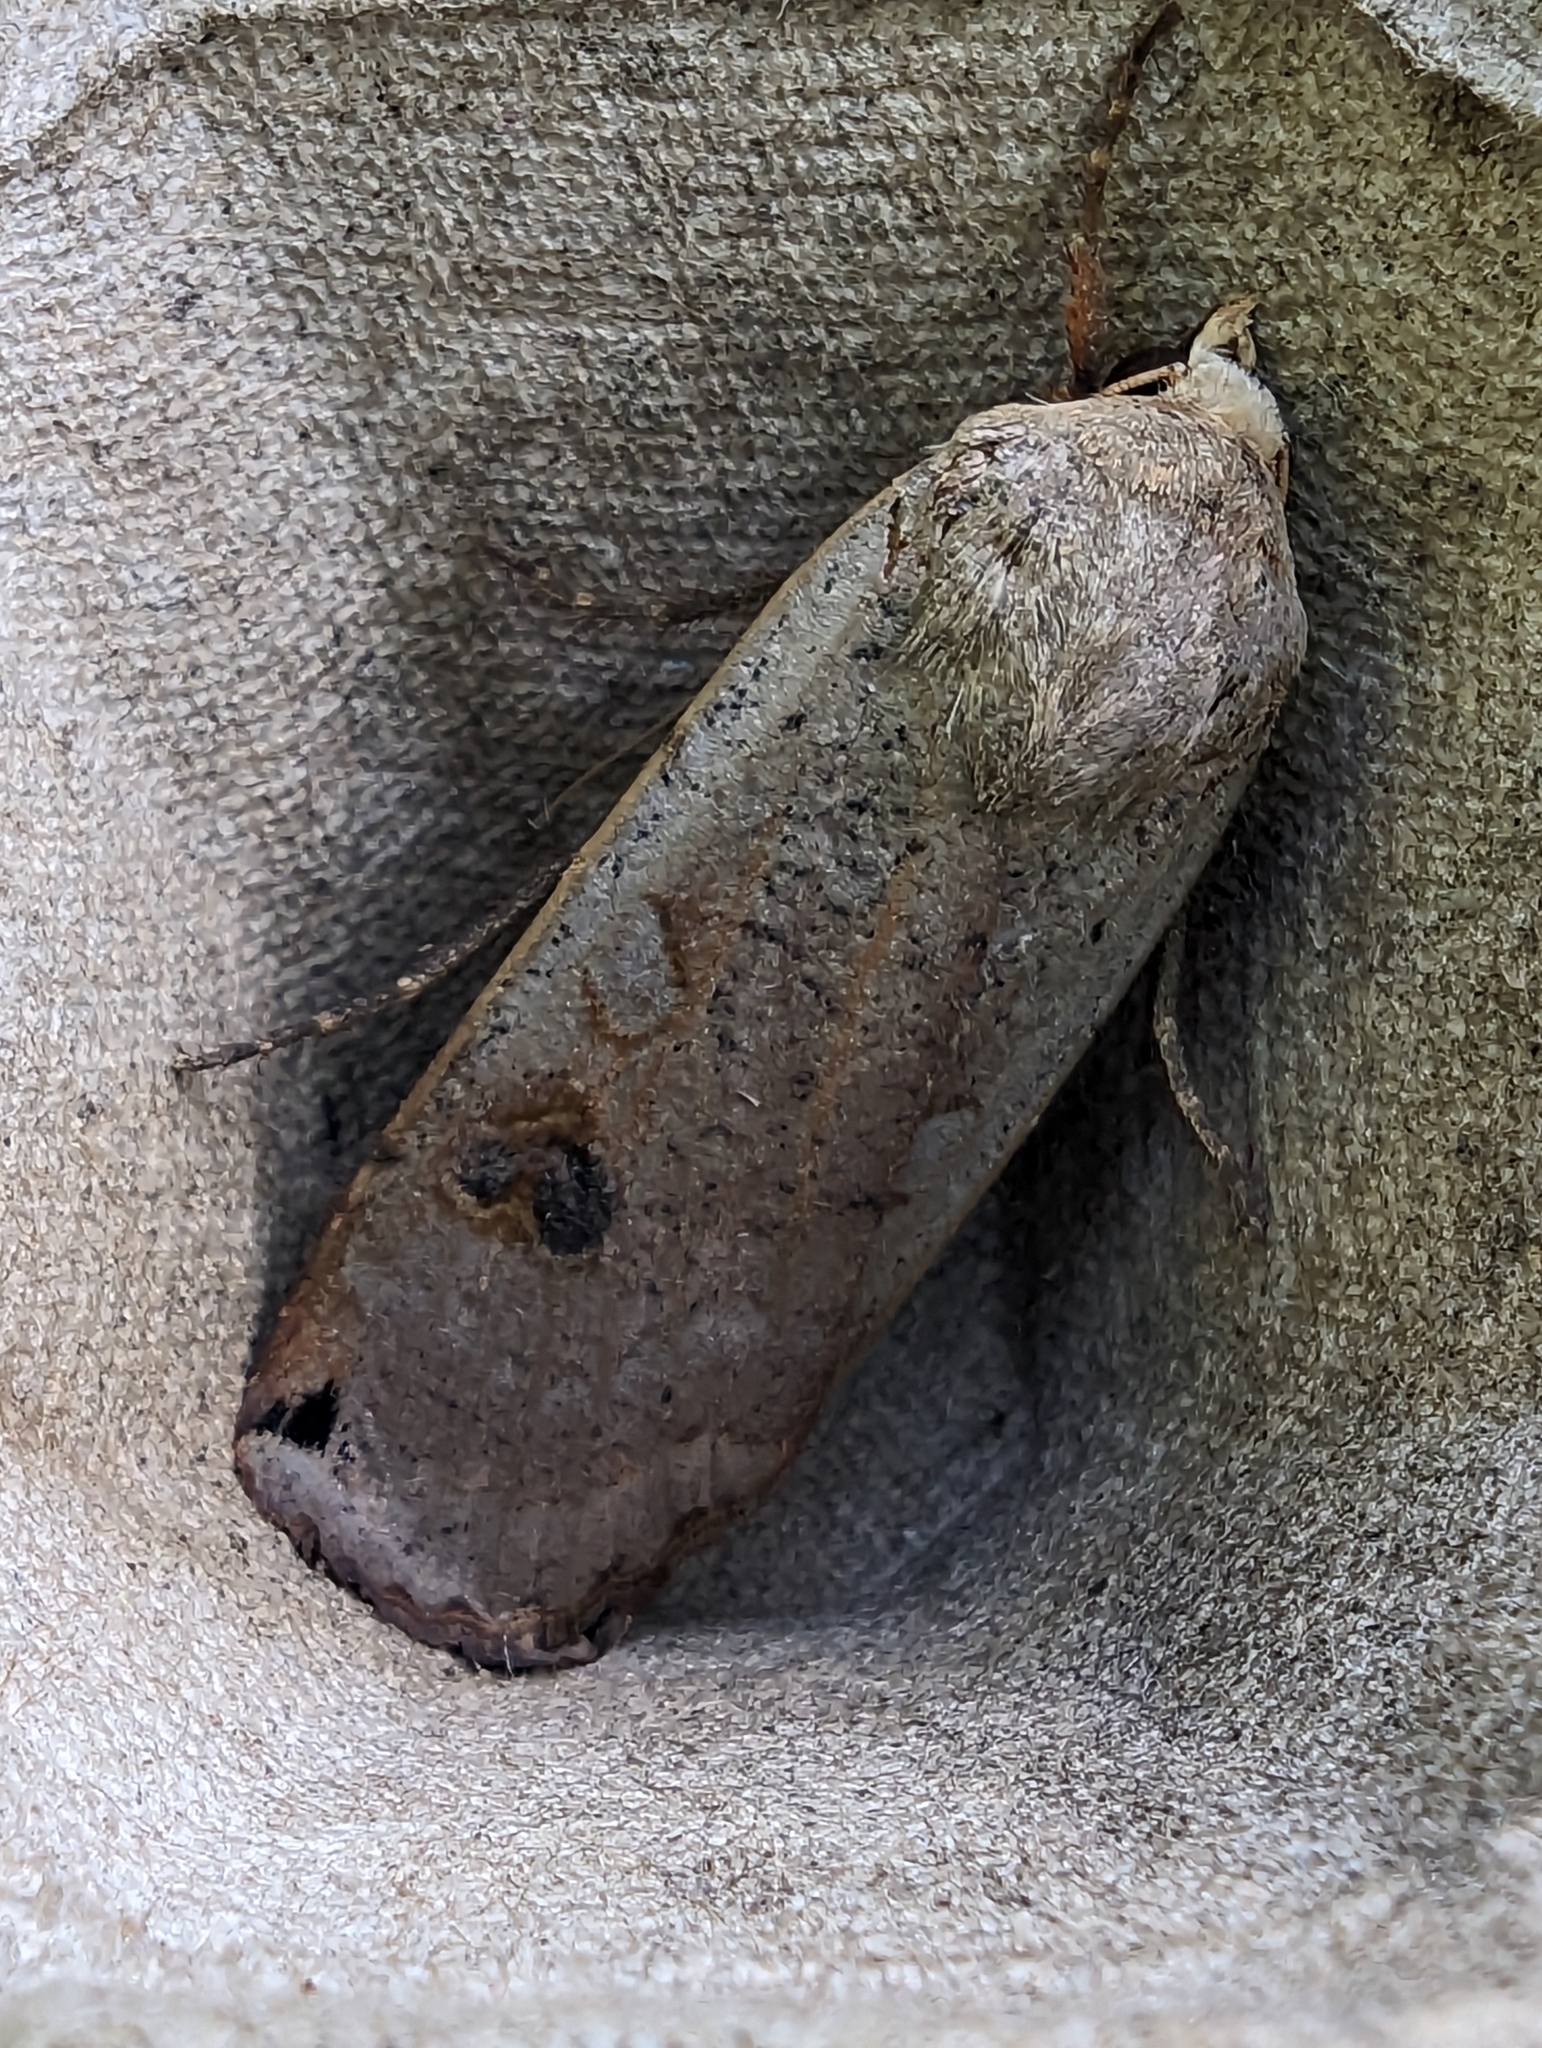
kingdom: Animalia
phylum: Arthropoda
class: Insecta
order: Lepidoptera
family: Noctuidae
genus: Noctua
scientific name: Noctua pronuba
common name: Large yellow underwing
